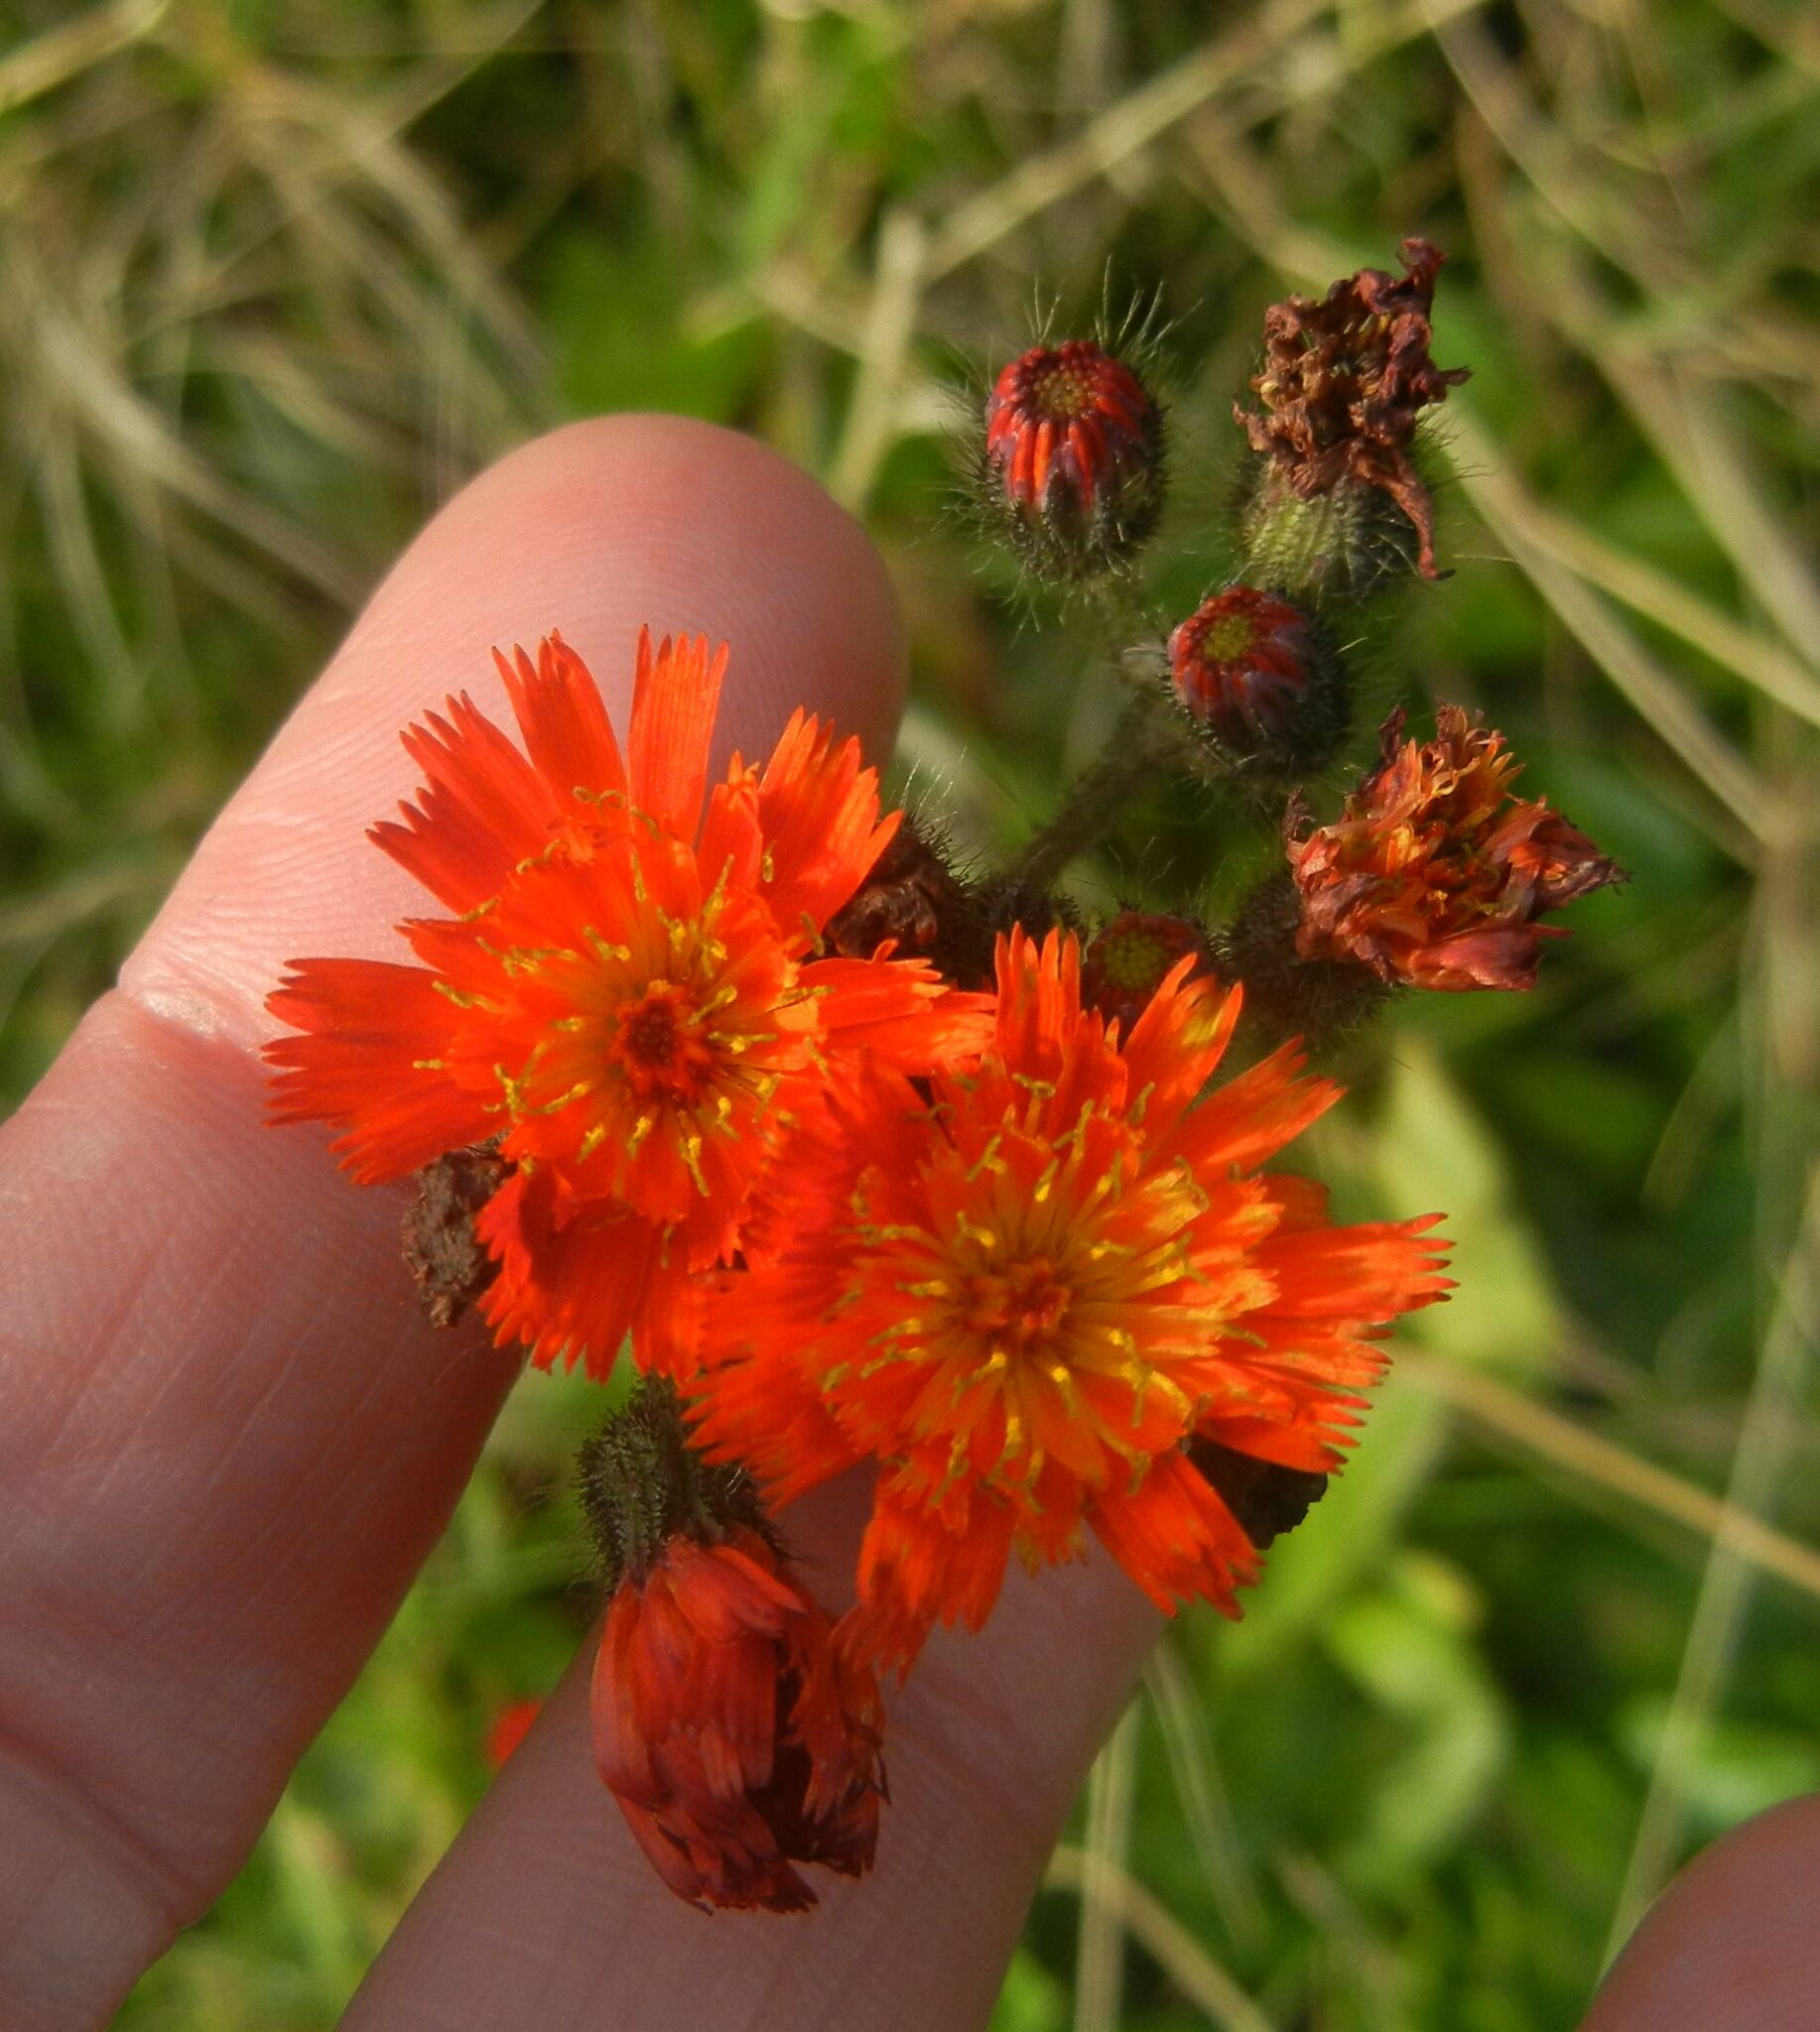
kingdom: Plantae
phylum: Tracheophyta
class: Magnoliopsida
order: Asterales
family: Asteraceae
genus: Pilosella
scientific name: Pilosella aurantiaca
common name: Fox-and-cubs
